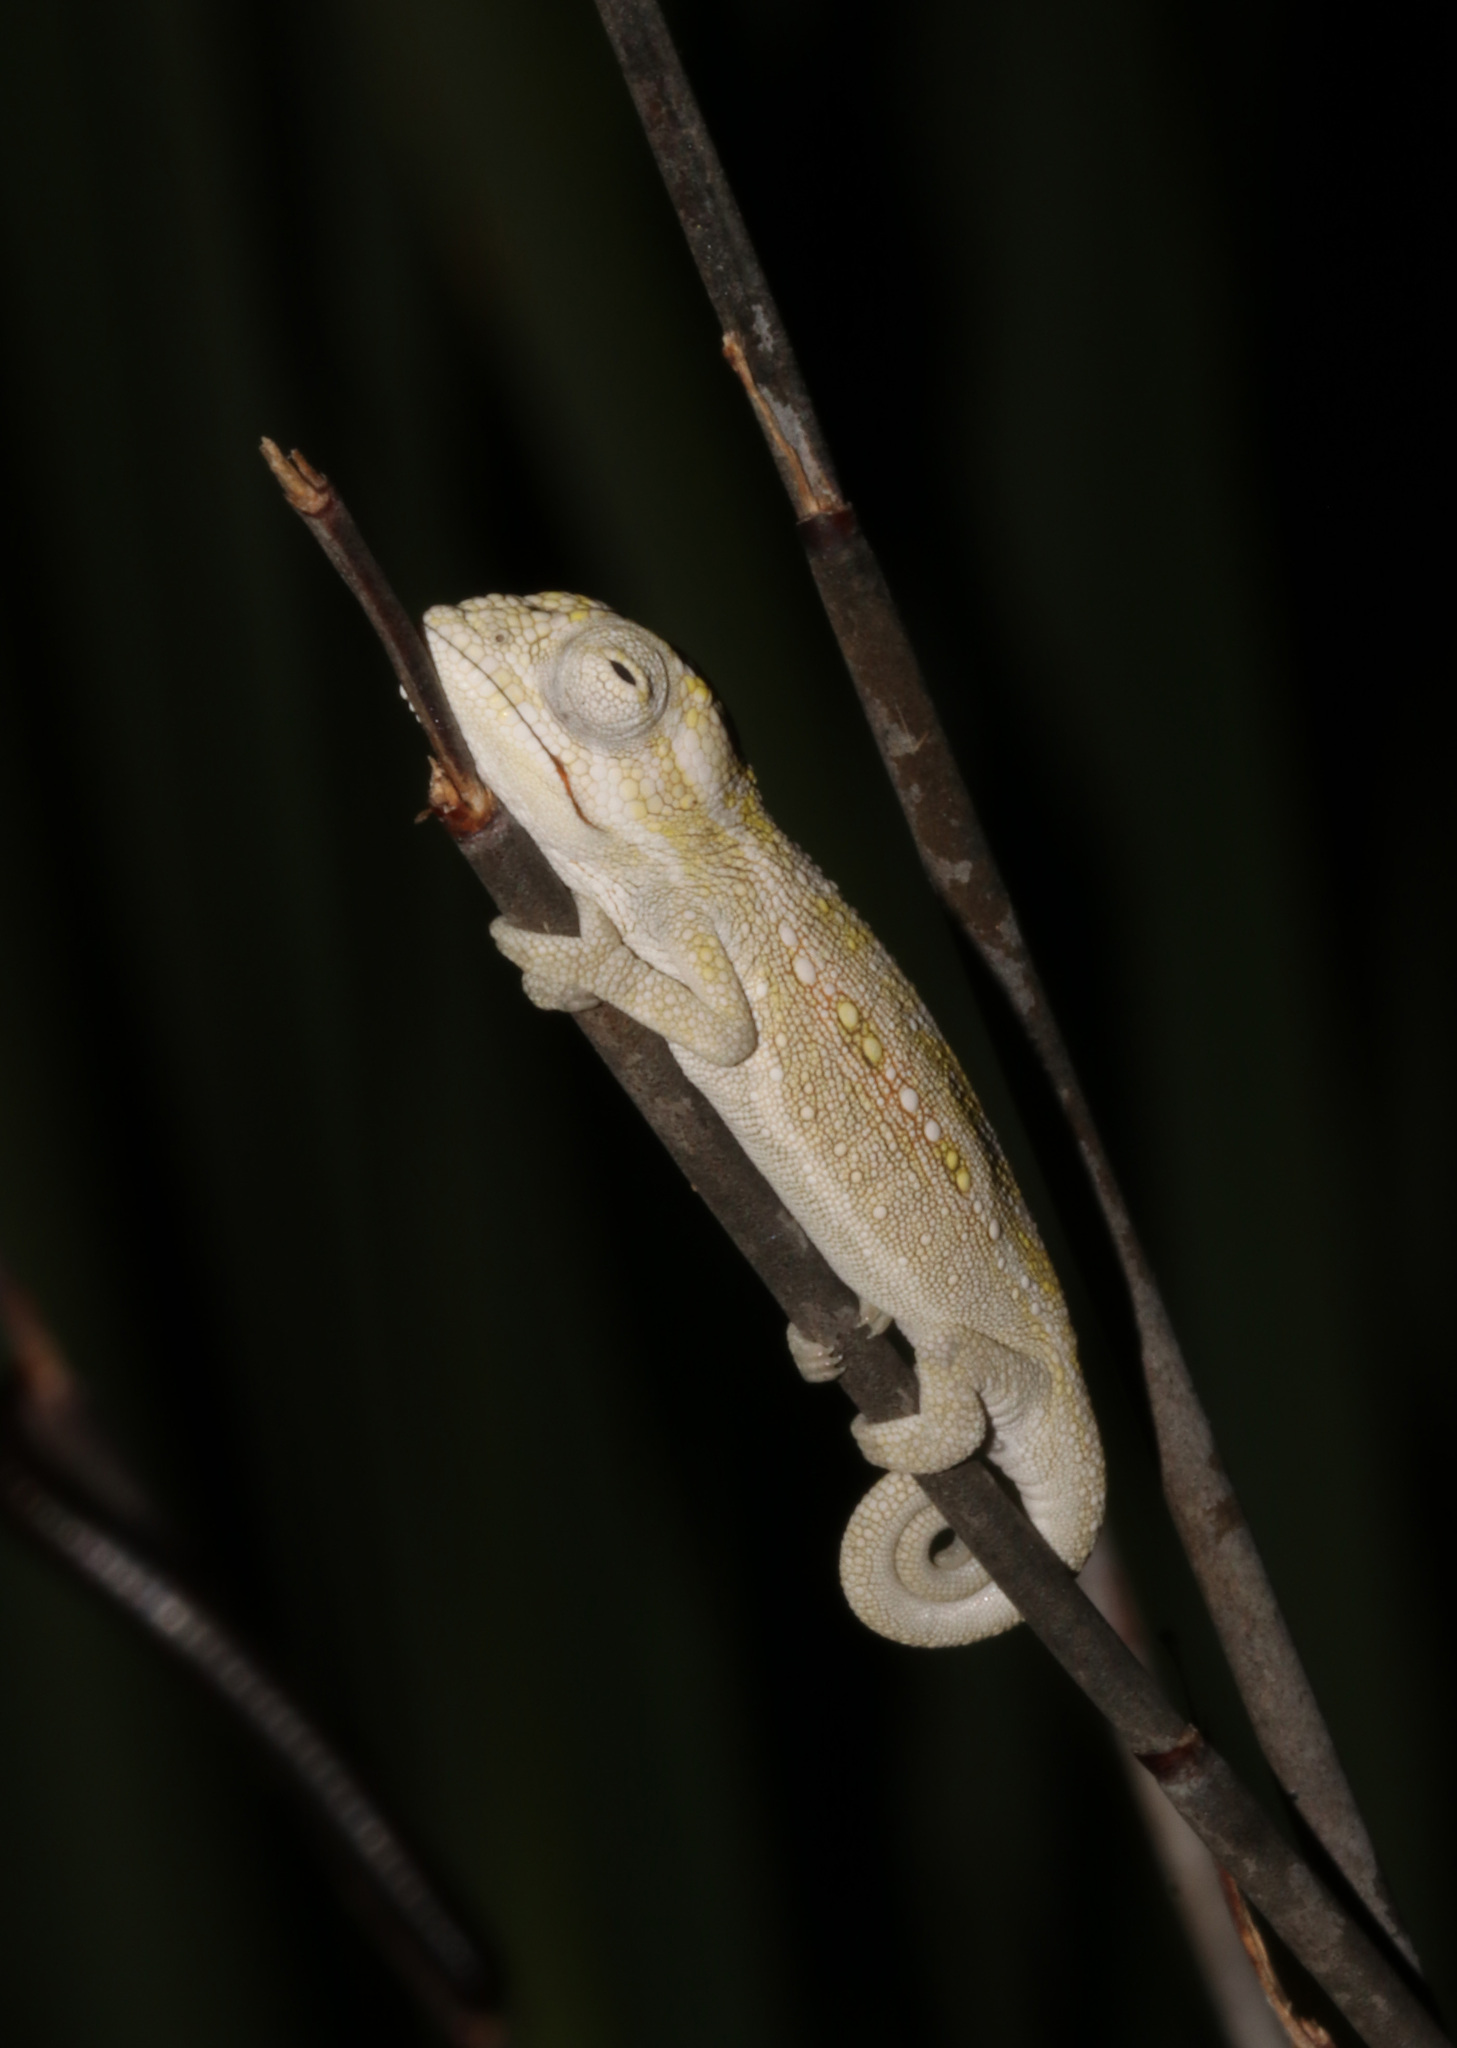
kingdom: Animalia
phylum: Chordata
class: Squamata
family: Chamaeleonidae
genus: Bradypodion
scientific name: Bradypodion pumilum
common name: Cape dwarf chameleon
